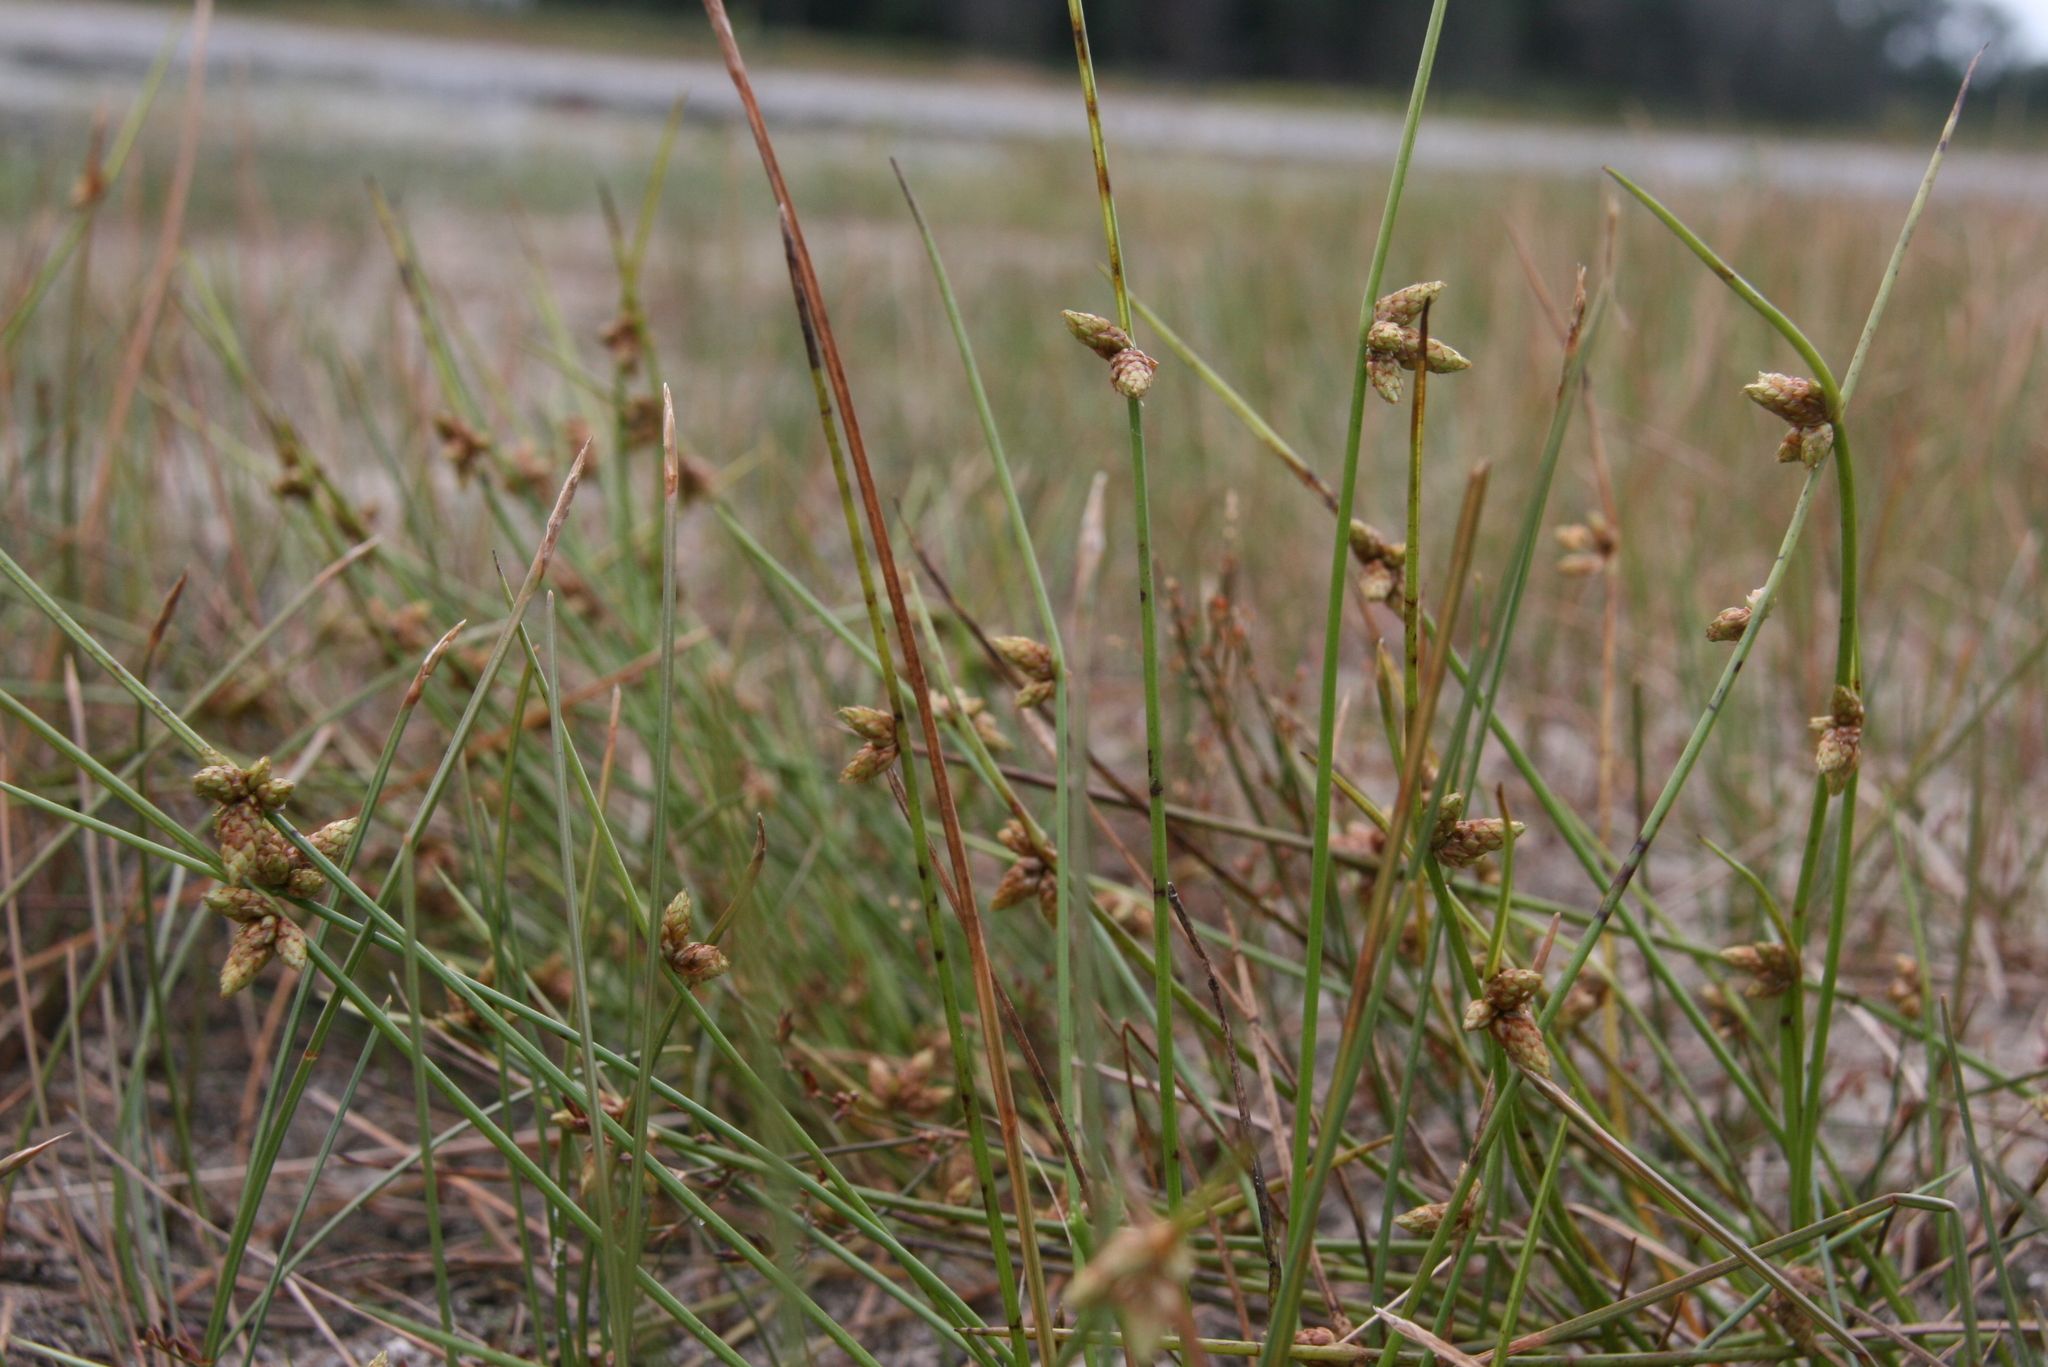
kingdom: Plantae
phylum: Tracheophyta
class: Liliopsida
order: Poales
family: Cyperaceae
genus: Schoenoplectiella
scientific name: Schoenoplectiella purshiana
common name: Weak-stalked bulrush
